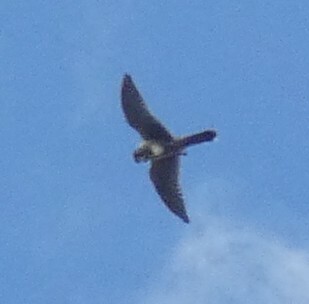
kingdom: Animalia
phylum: Chordata
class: Aves
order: Falconiformes
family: Falconidae
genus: Falco
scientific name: Falco sparverius
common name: American kestrel
